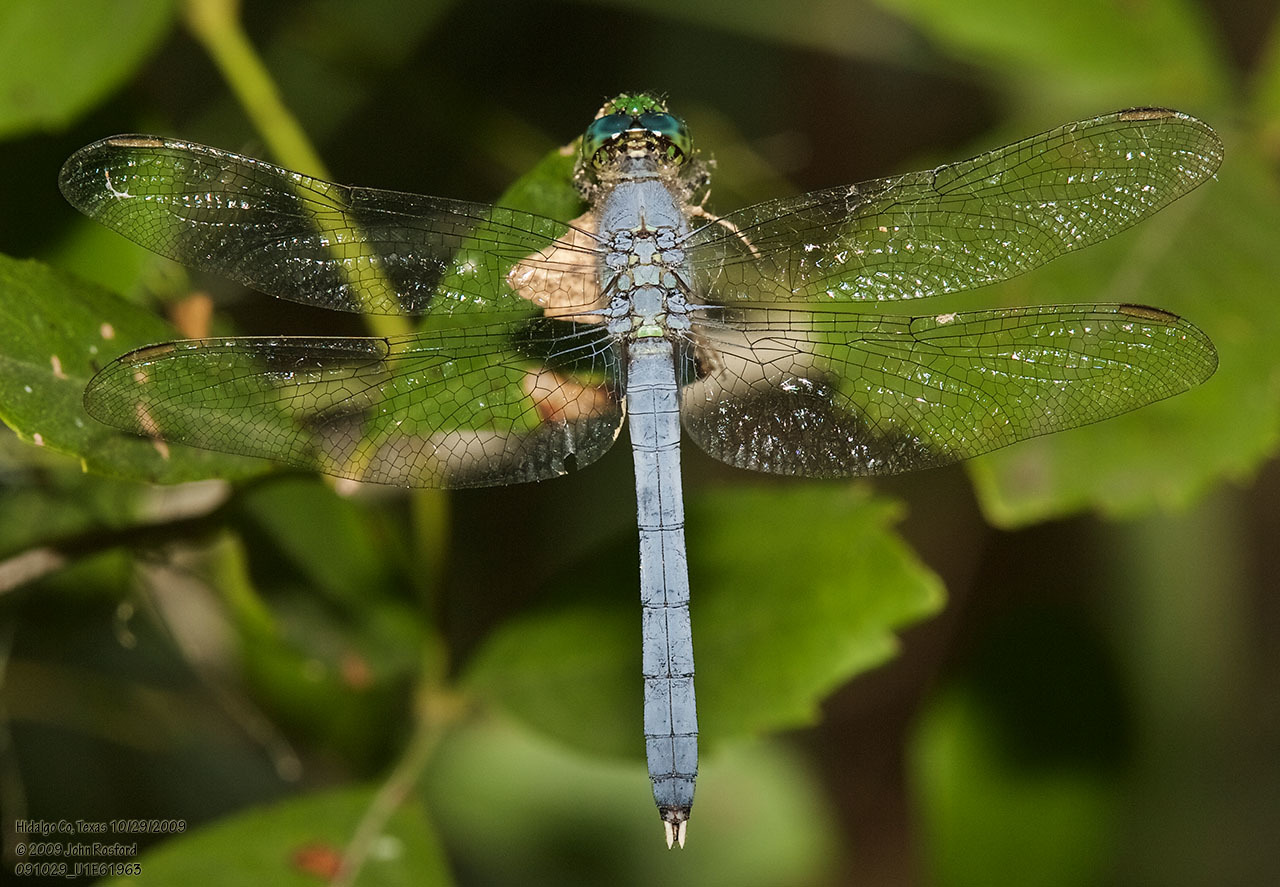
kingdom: Animalia
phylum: Arthropoda
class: Insecta
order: Odonata
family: Libellulidae
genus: Erythemis
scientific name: Erythemis simplicicollis
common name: Eastern pondhawk
